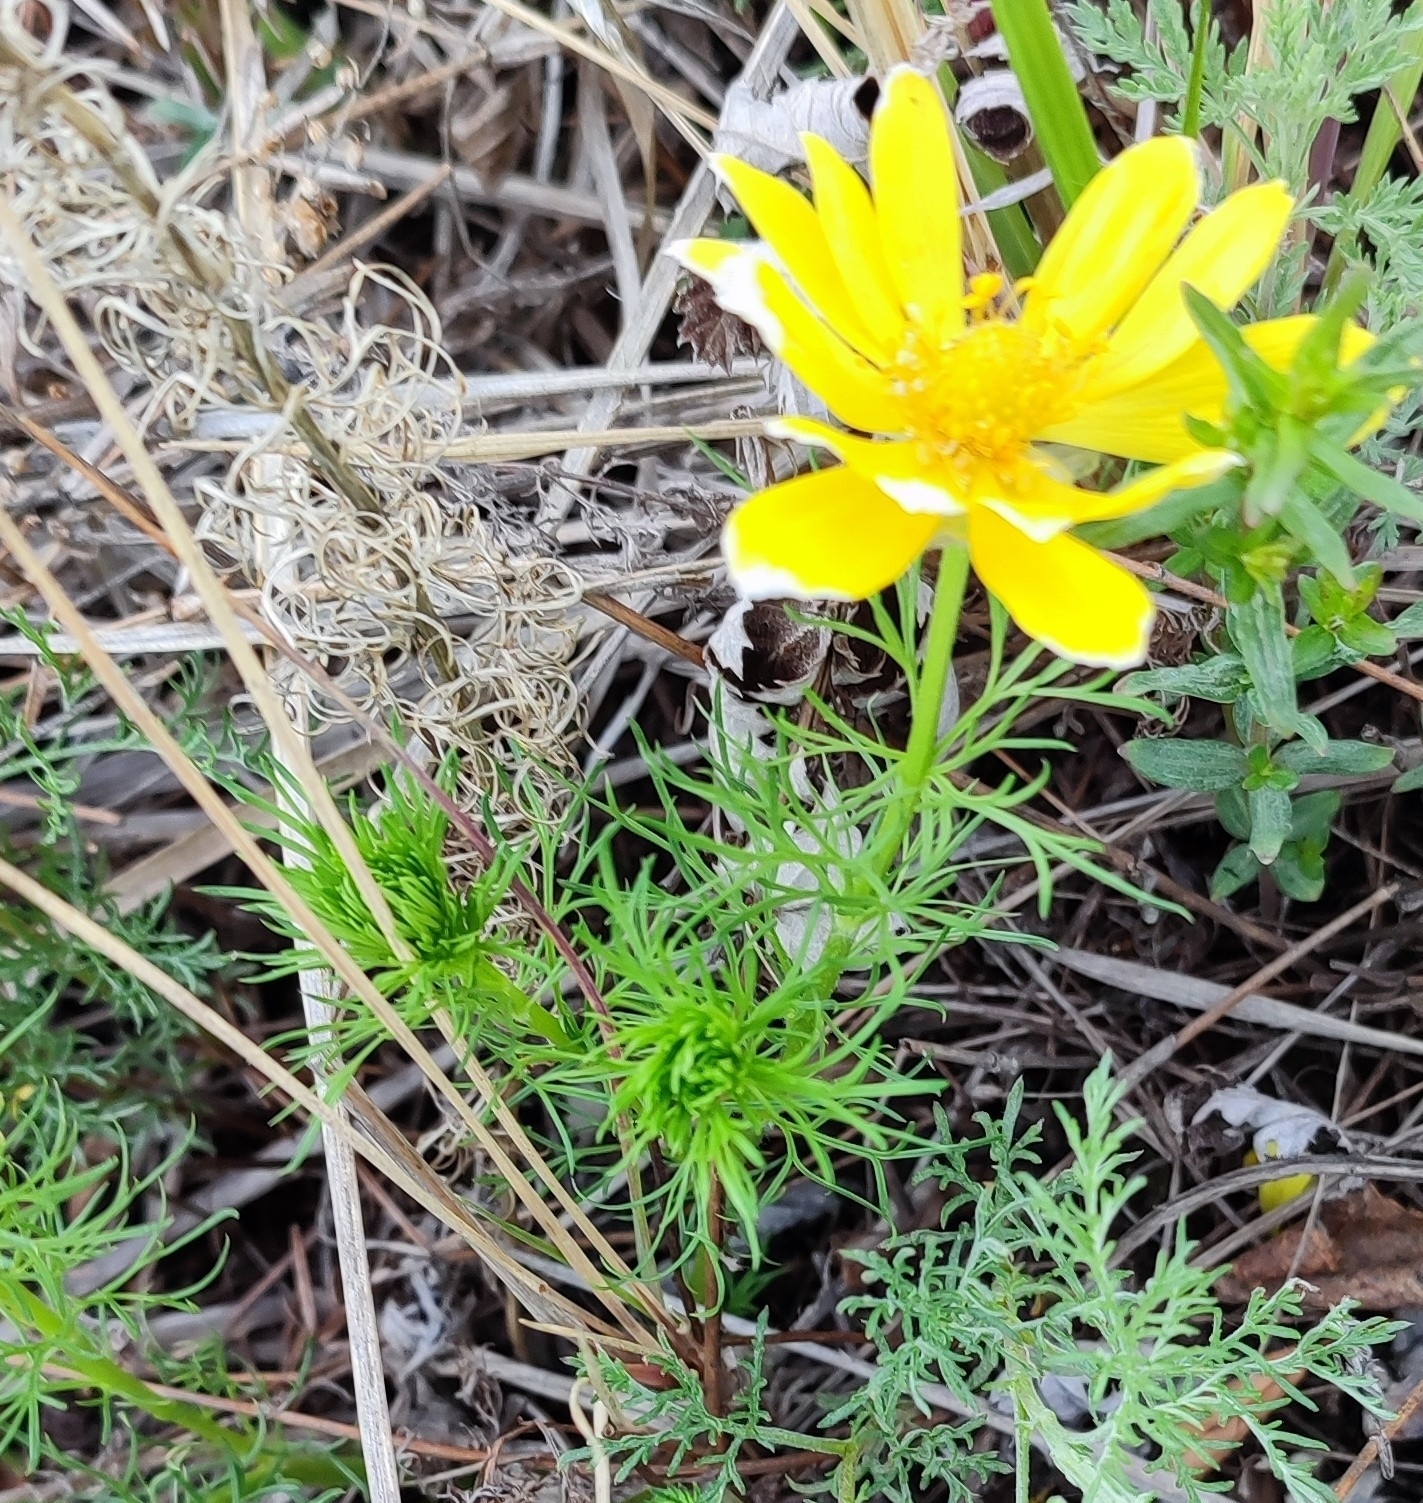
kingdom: Plantae
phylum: Tracheophyta
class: Magnoliopsida
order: Ranunculales
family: Ranunculaceae
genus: Adonis
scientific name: Adonis vernalis
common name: Yellow pheasants-eye
